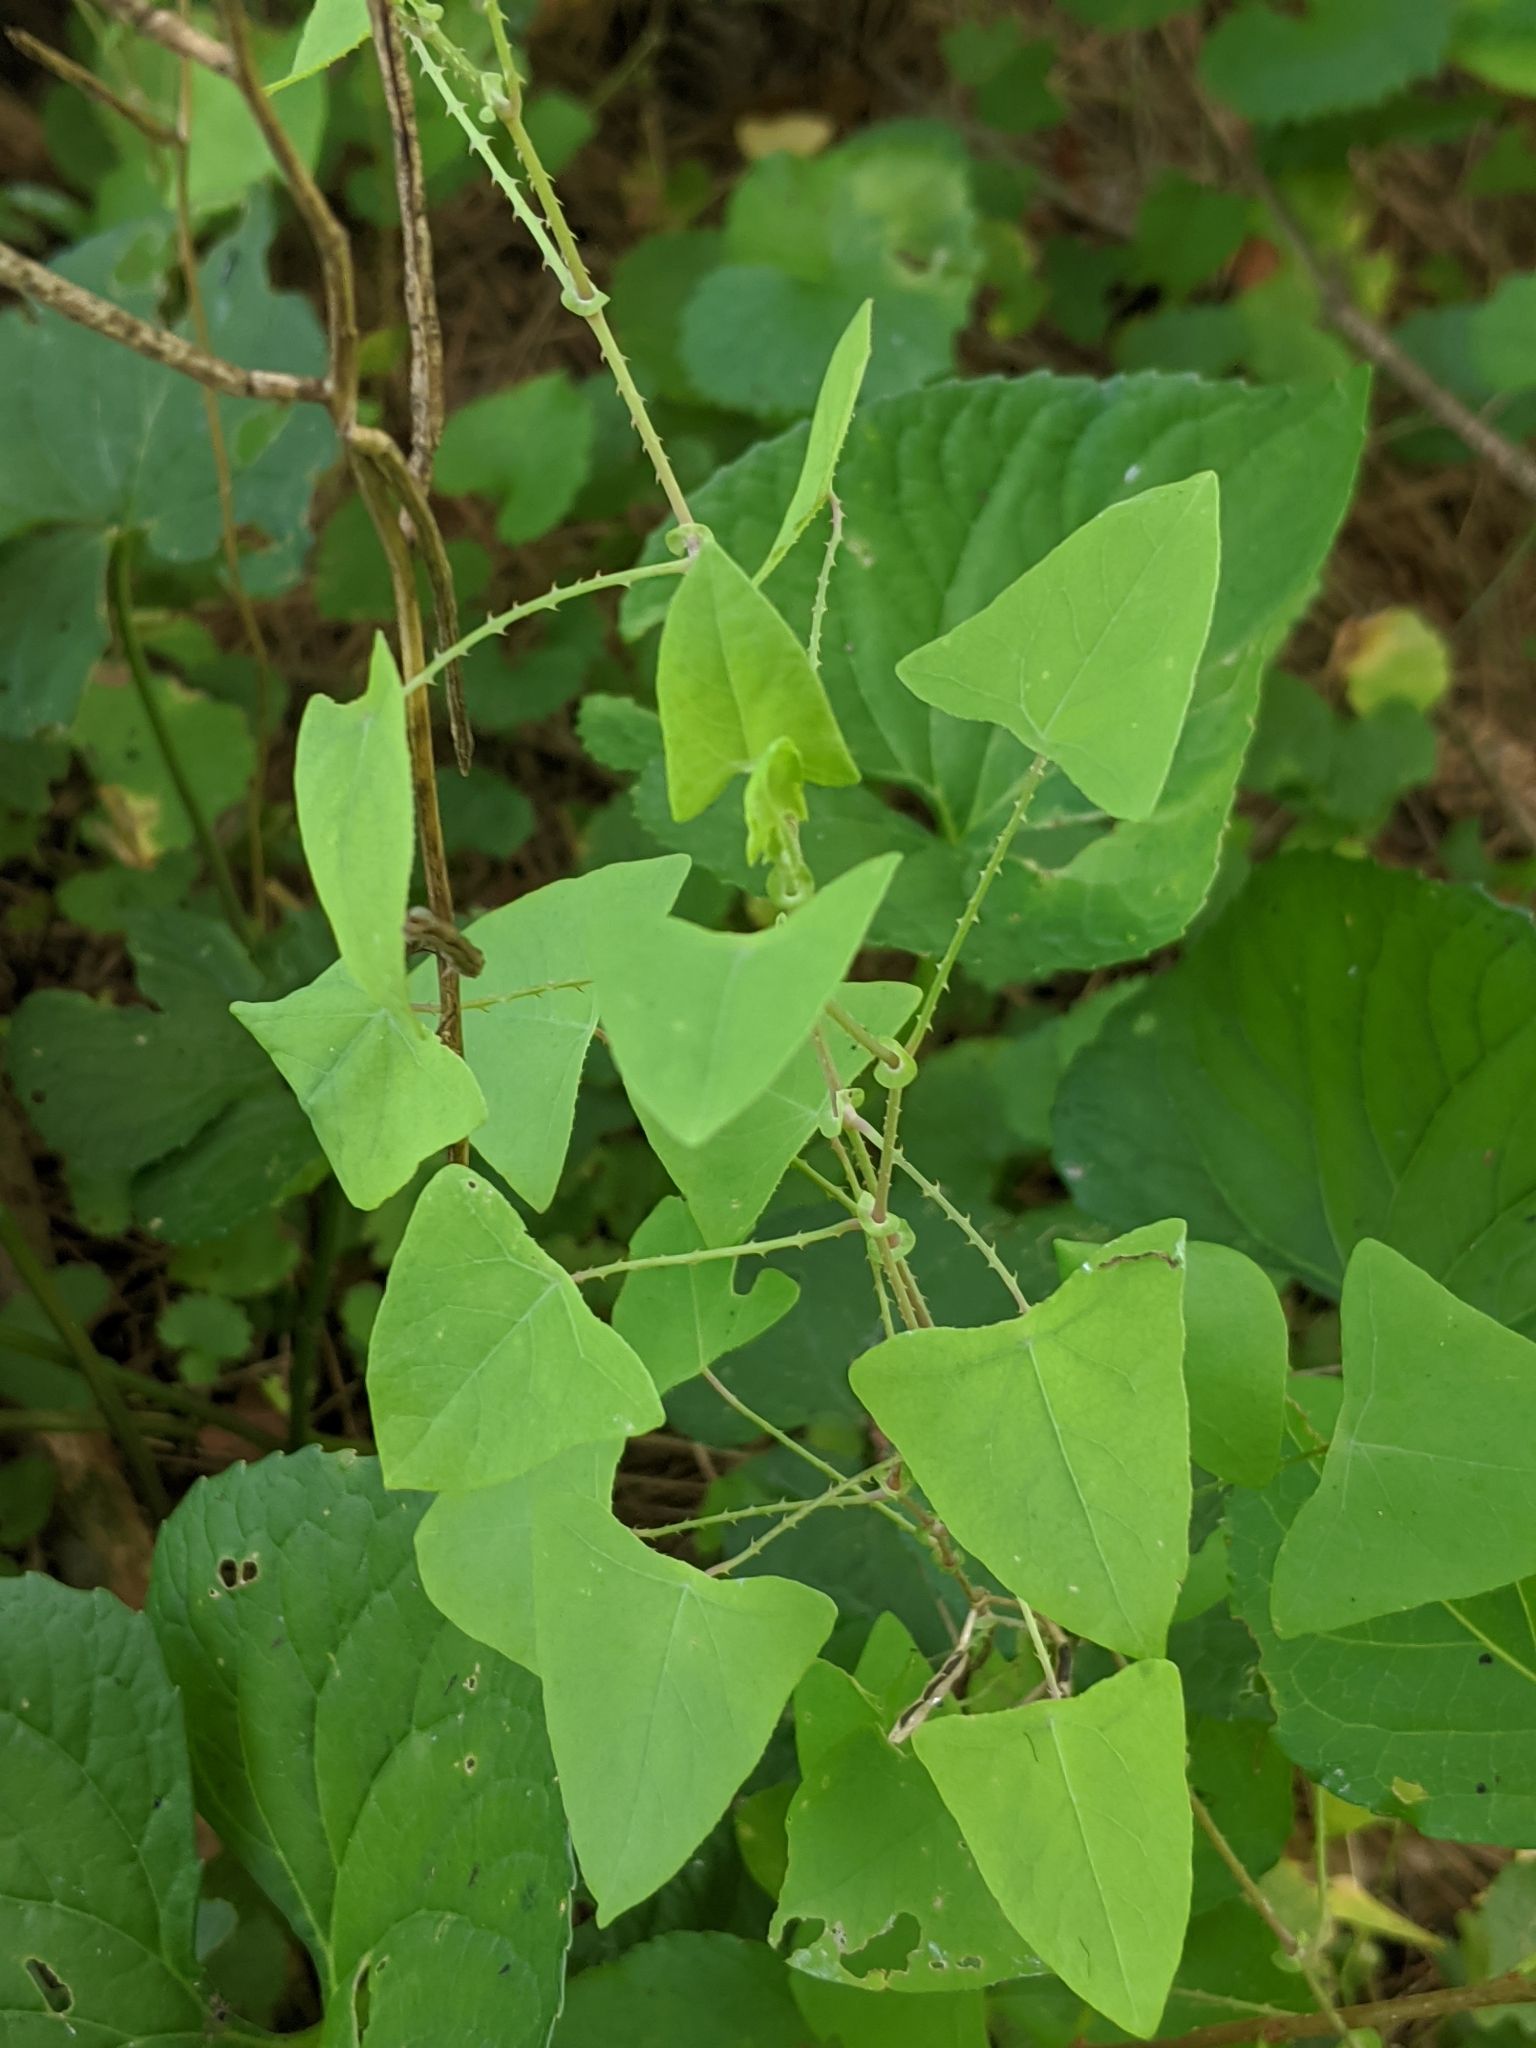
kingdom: Plantae
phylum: Tracheophyta
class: Magnoliopsida
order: Caryophyllales
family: Polygonaceae
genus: Persicaria
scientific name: Persicaria perfoliata
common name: Asiatic tearthumb
